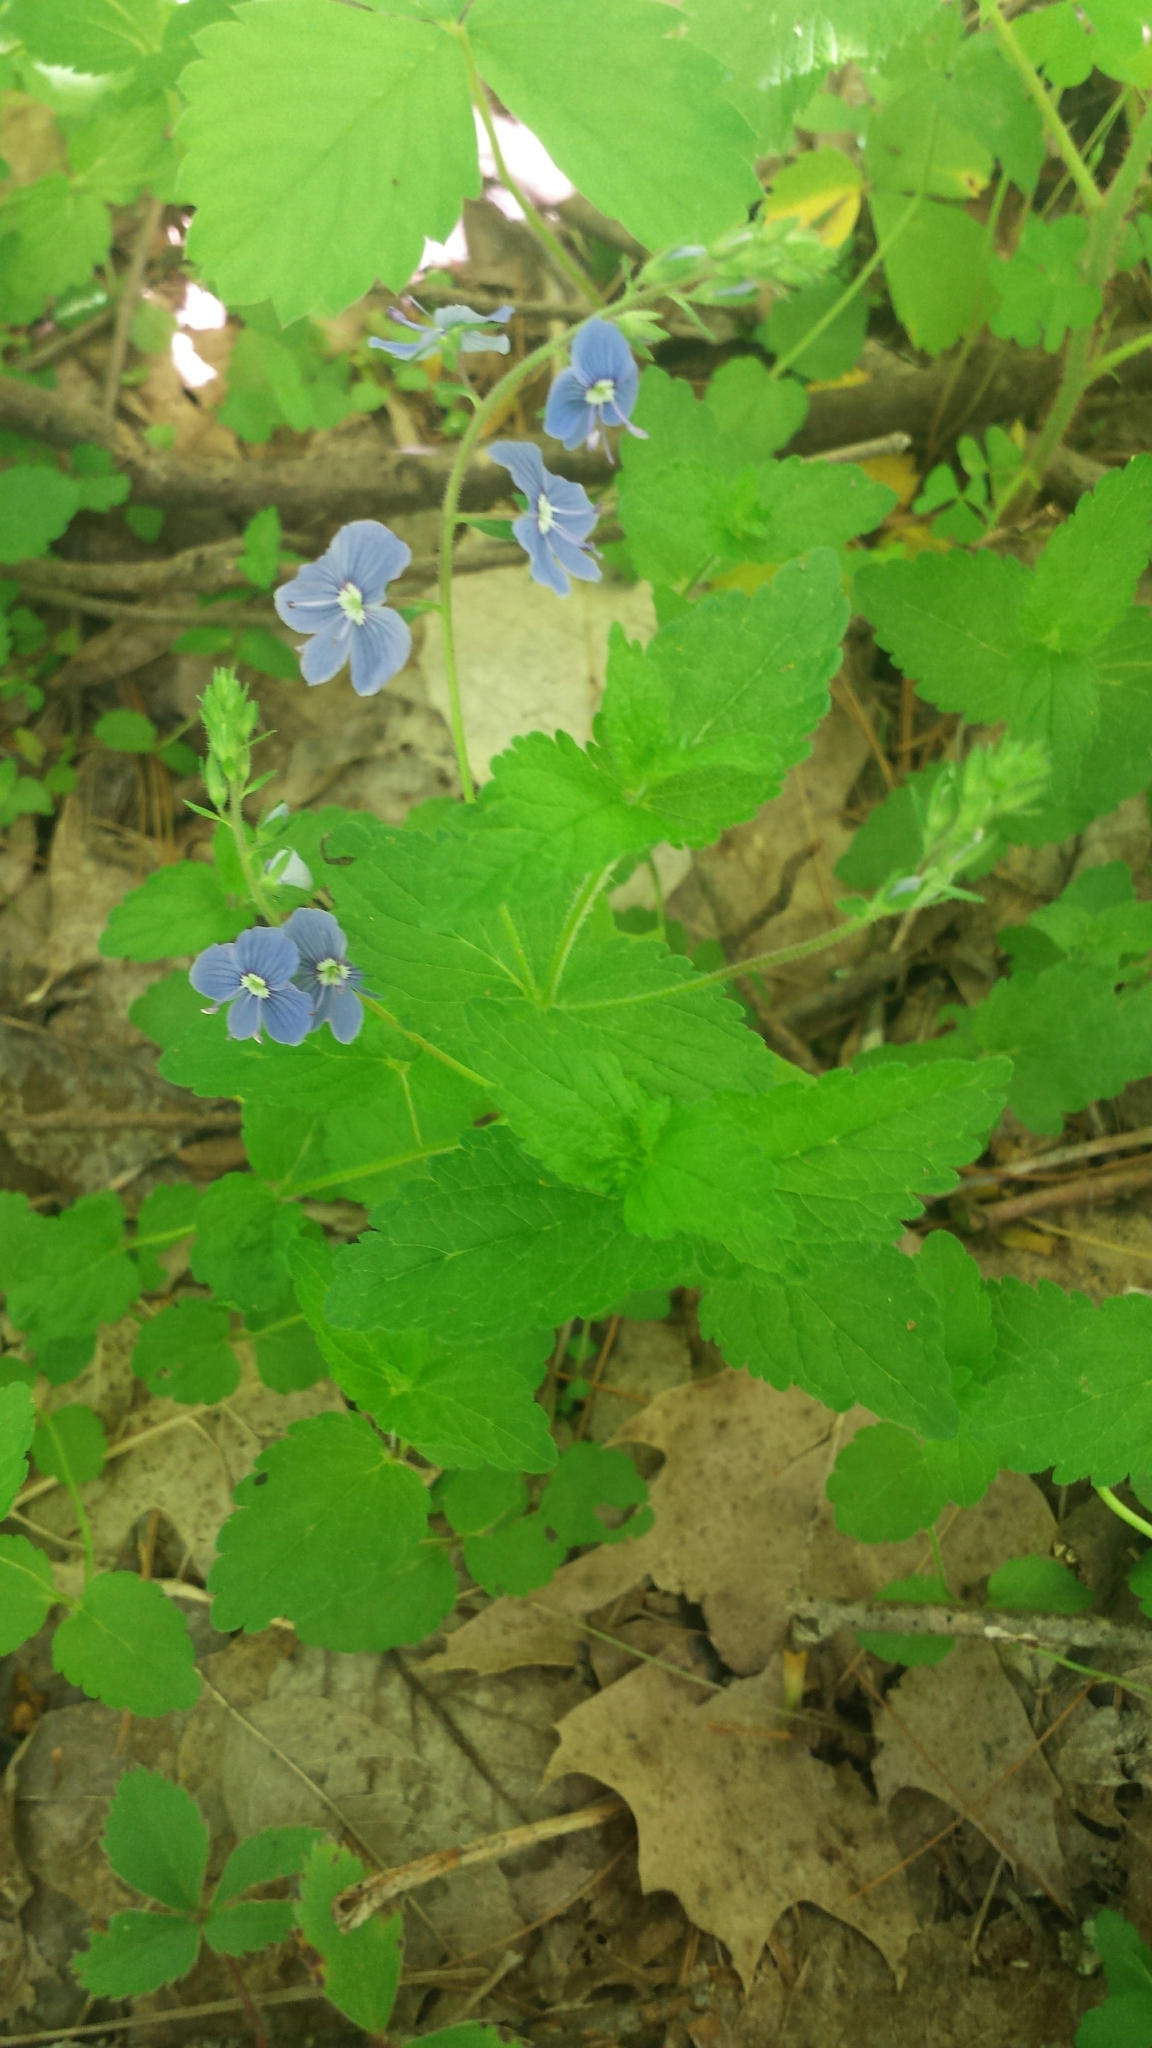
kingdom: Plantae
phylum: Tracheophyta
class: Magnoliopsida
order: Lamiales
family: Plantaginaceae
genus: Veronica
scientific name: Veronica chamaedrys
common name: Germander speedwell
